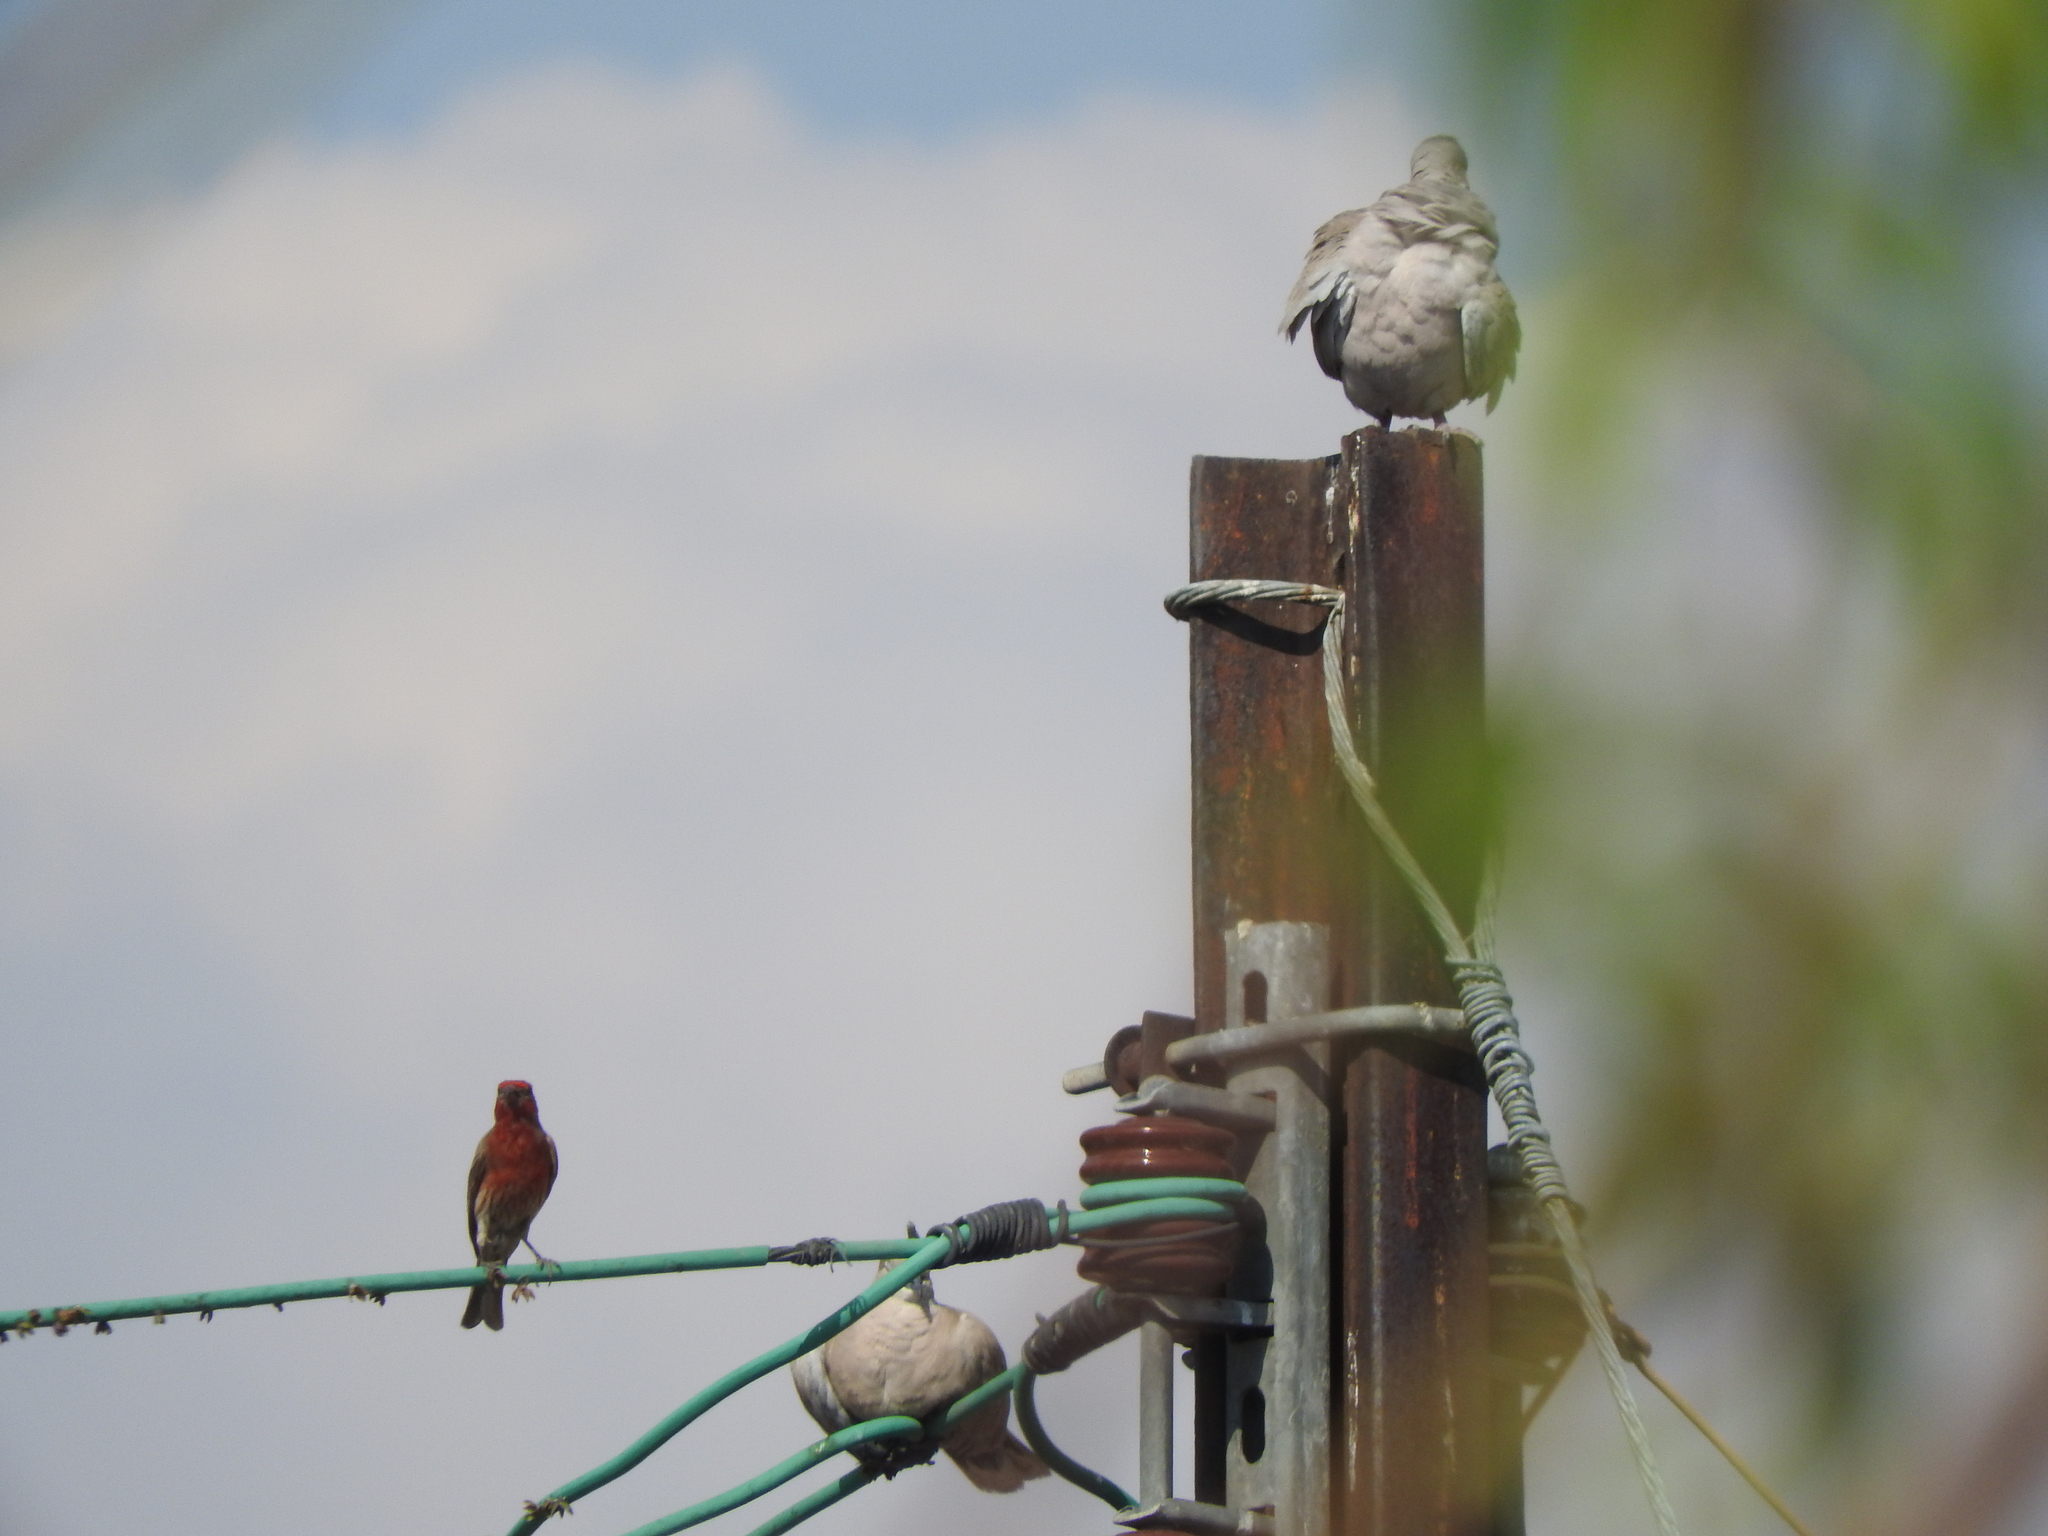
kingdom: Animalia
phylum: Chordata
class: Aves
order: Columbiformes
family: Columbidae
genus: Streptopelia
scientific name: Streptopelia decaocto
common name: Eurasian collared dove
